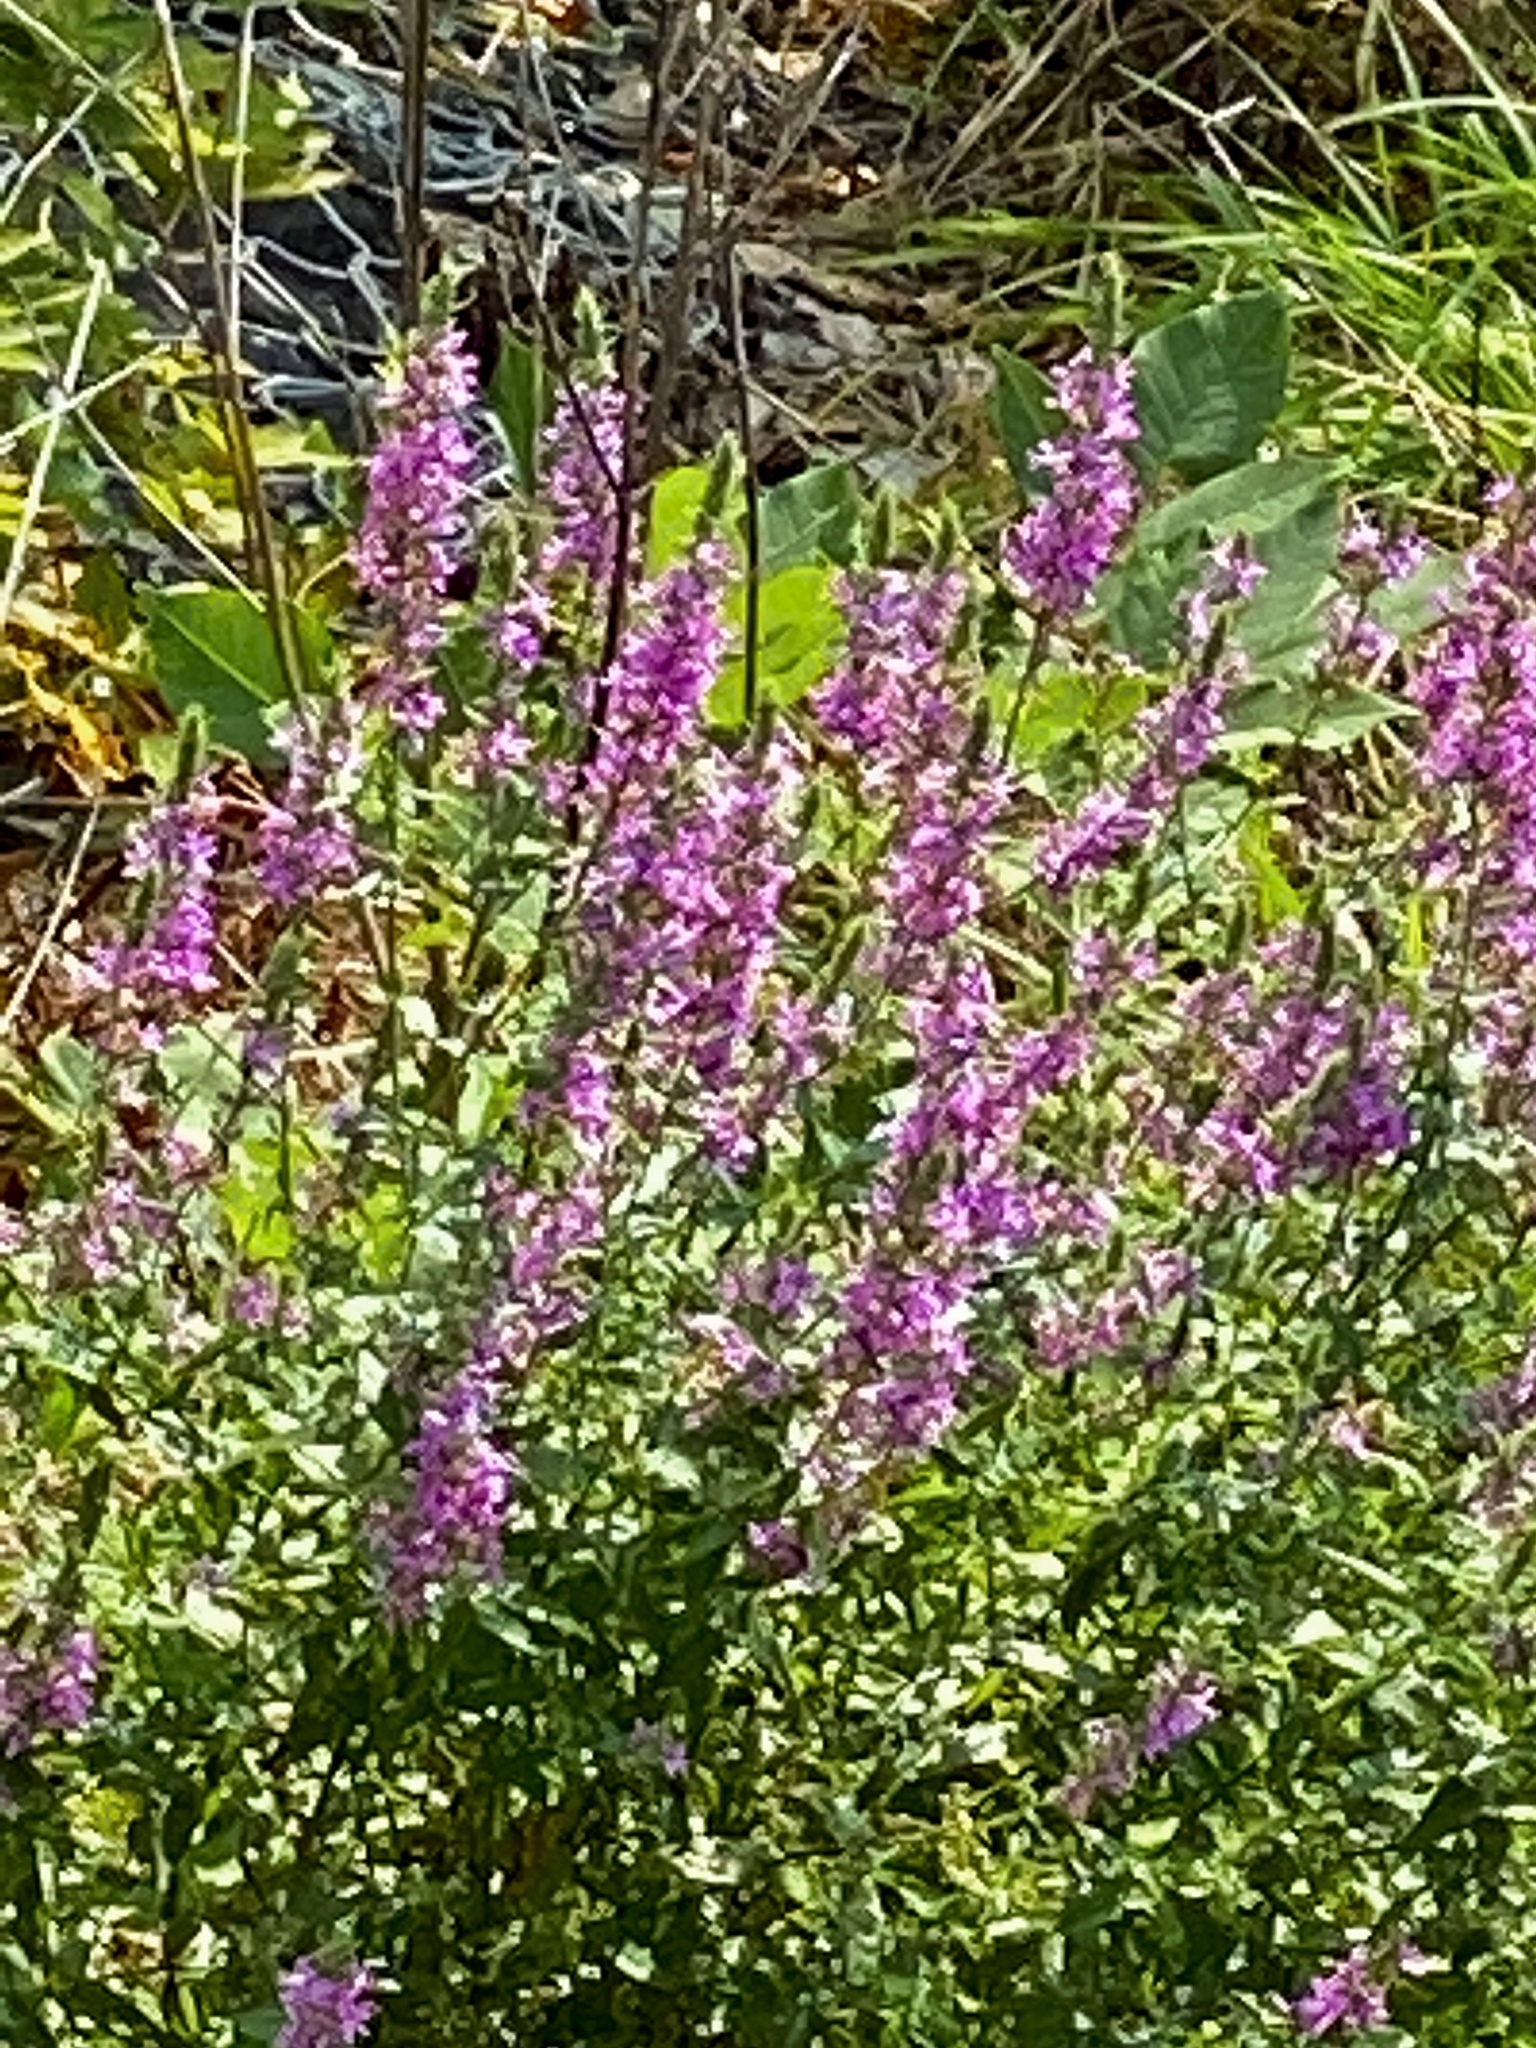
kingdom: Plantae
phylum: Tracheophyta
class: Magnoliopsida
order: Myrtales
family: Lythraceae
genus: Lythrum
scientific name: Lythrum salicaria
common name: Purple loosestrife
